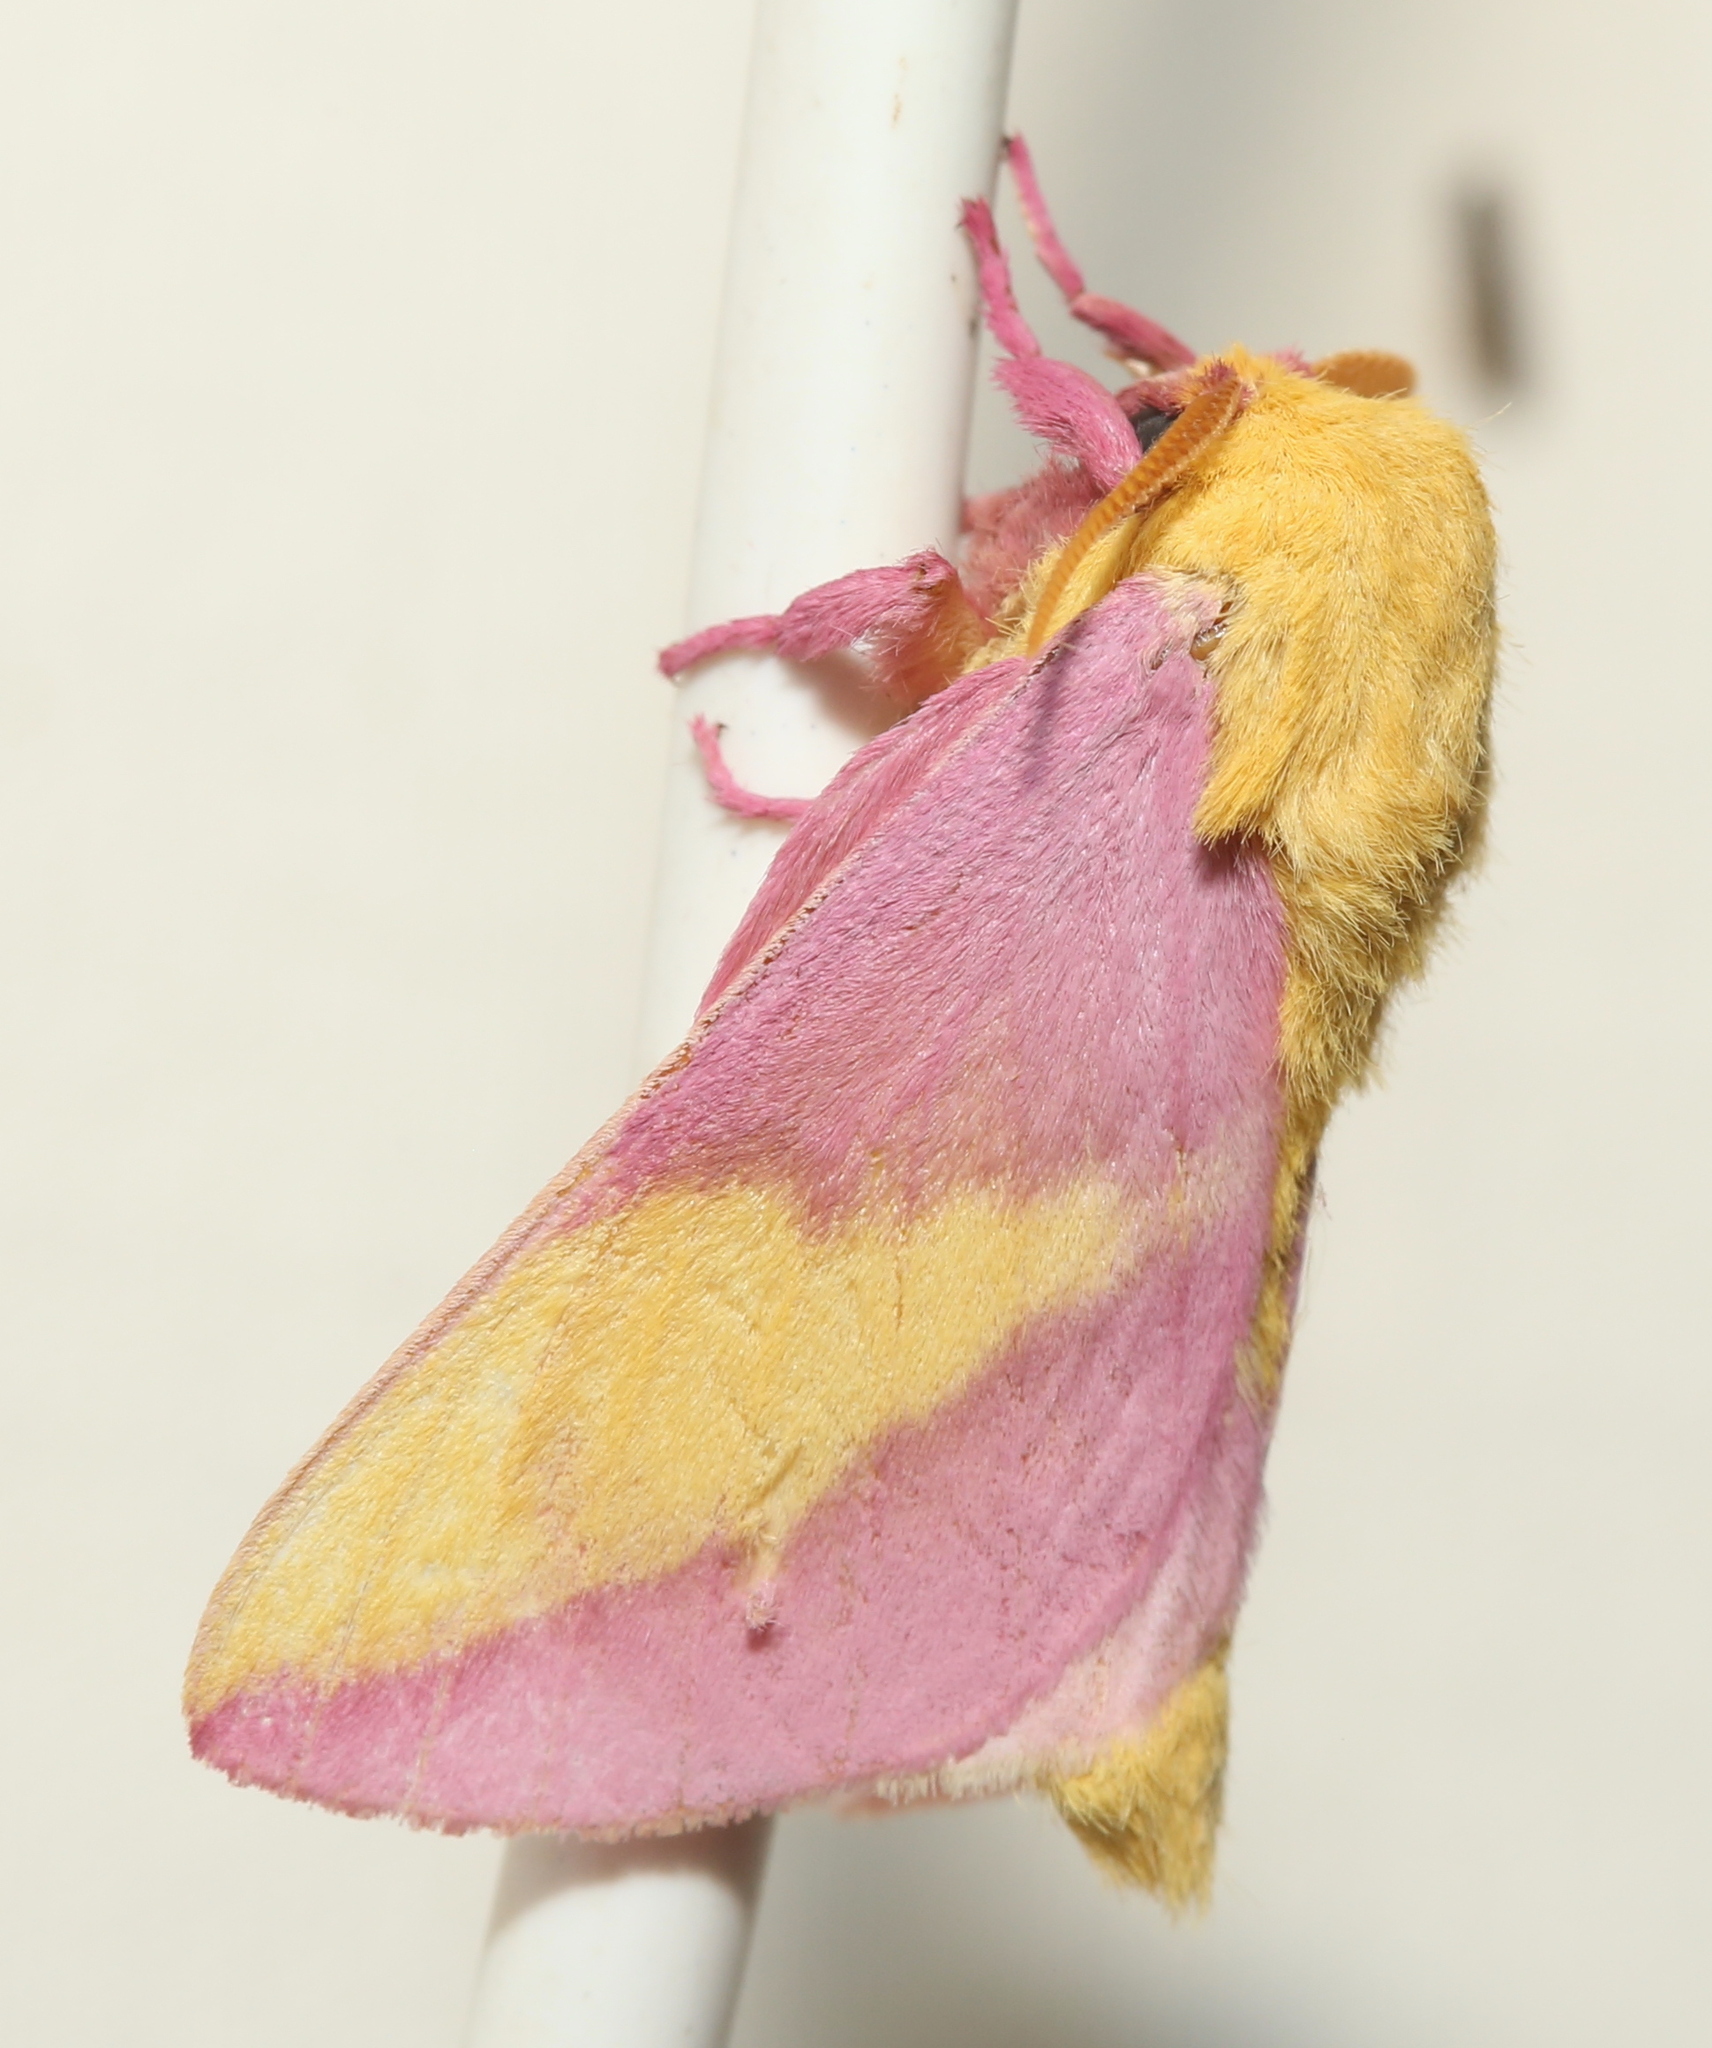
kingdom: Animalia
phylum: Arthropoda
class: Insecta
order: Lepidoptera
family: Saturniidae
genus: Dryocampa
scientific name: Dryocampa rubicunda
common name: Rosy maple moth
